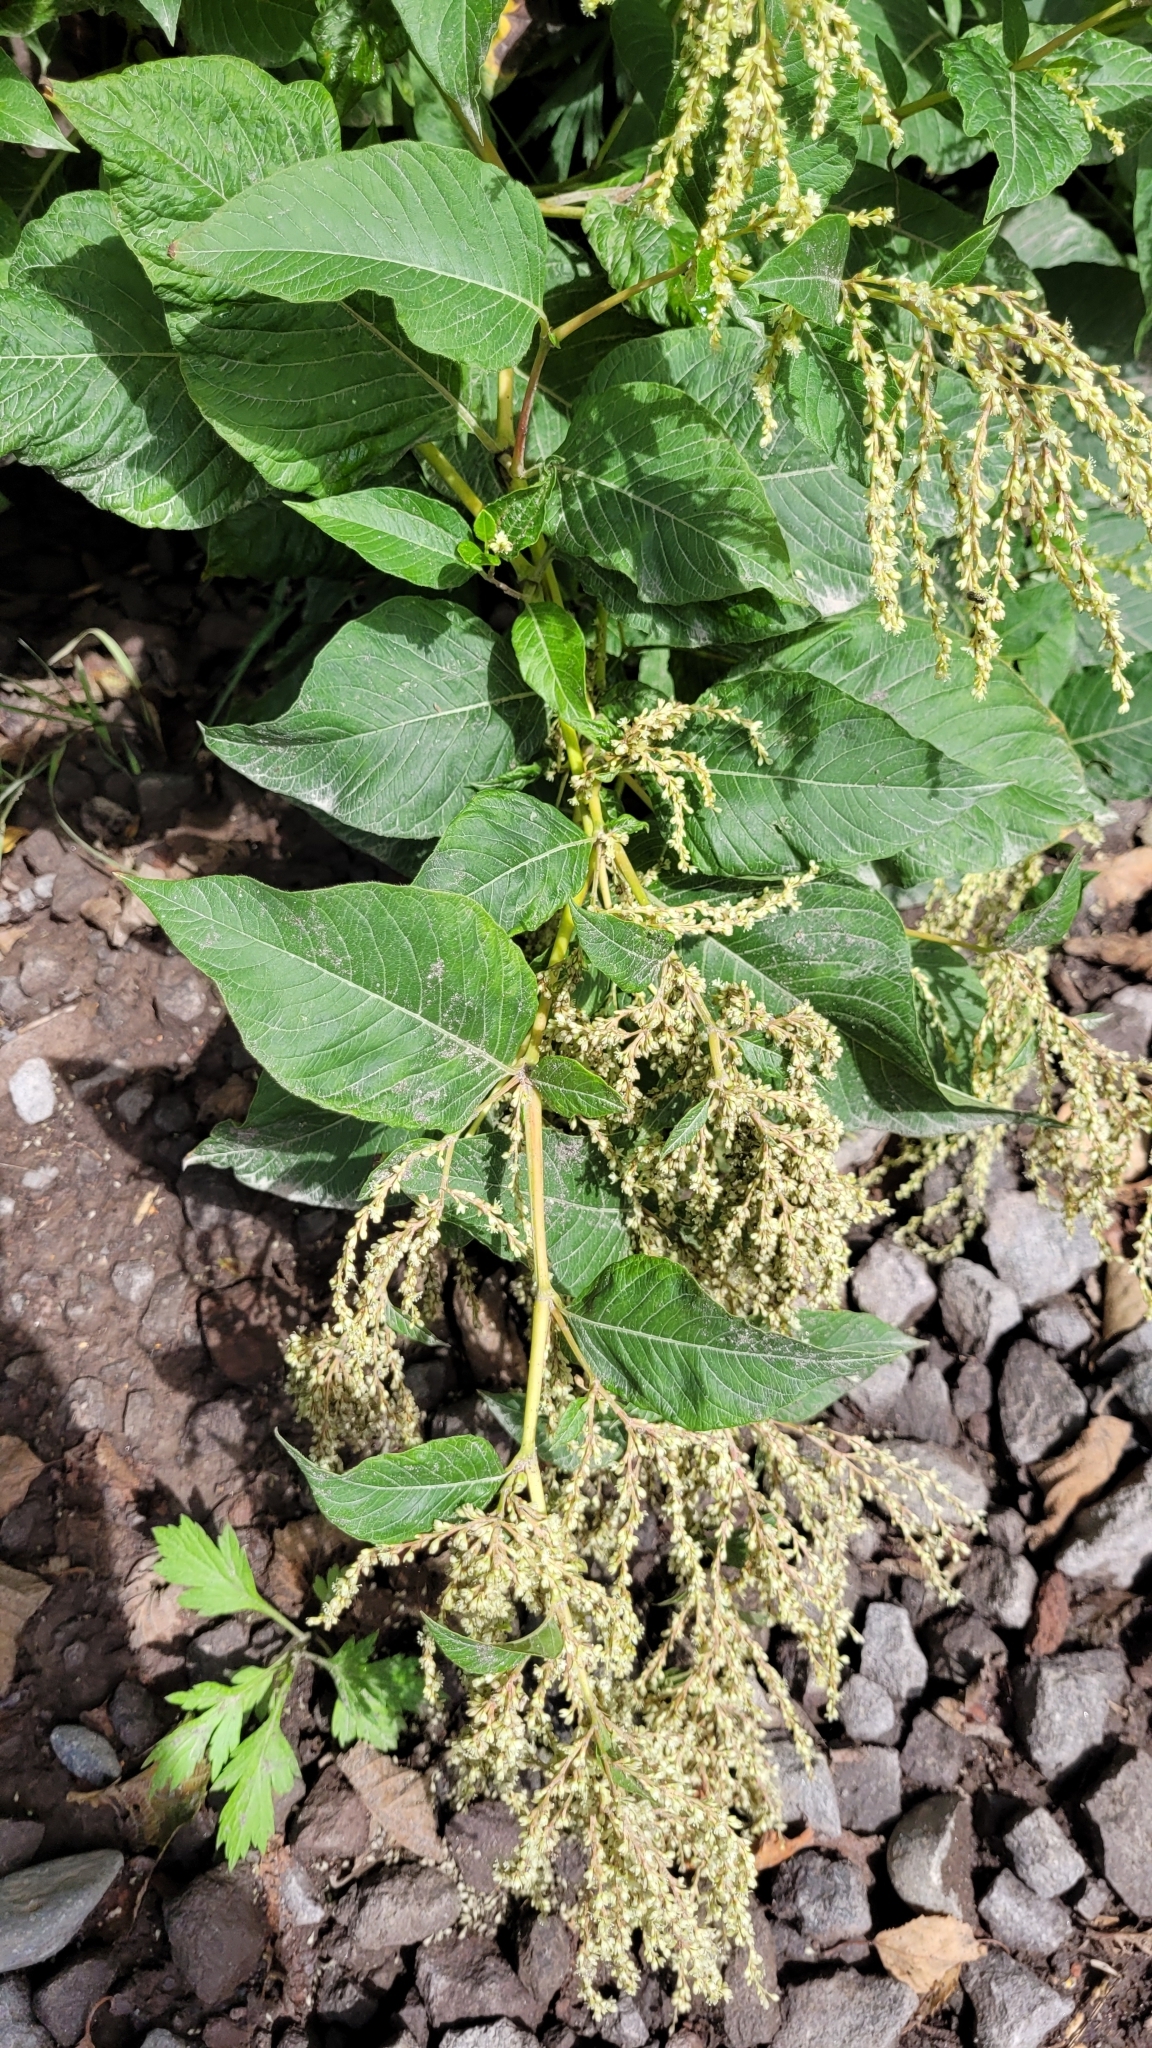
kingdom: Plantae
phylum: Tracheophyta
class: Magnoliopsida
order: Caryophyllales
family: Polygonaceae
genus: Koenigia
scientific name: Koenigia weyrichii
